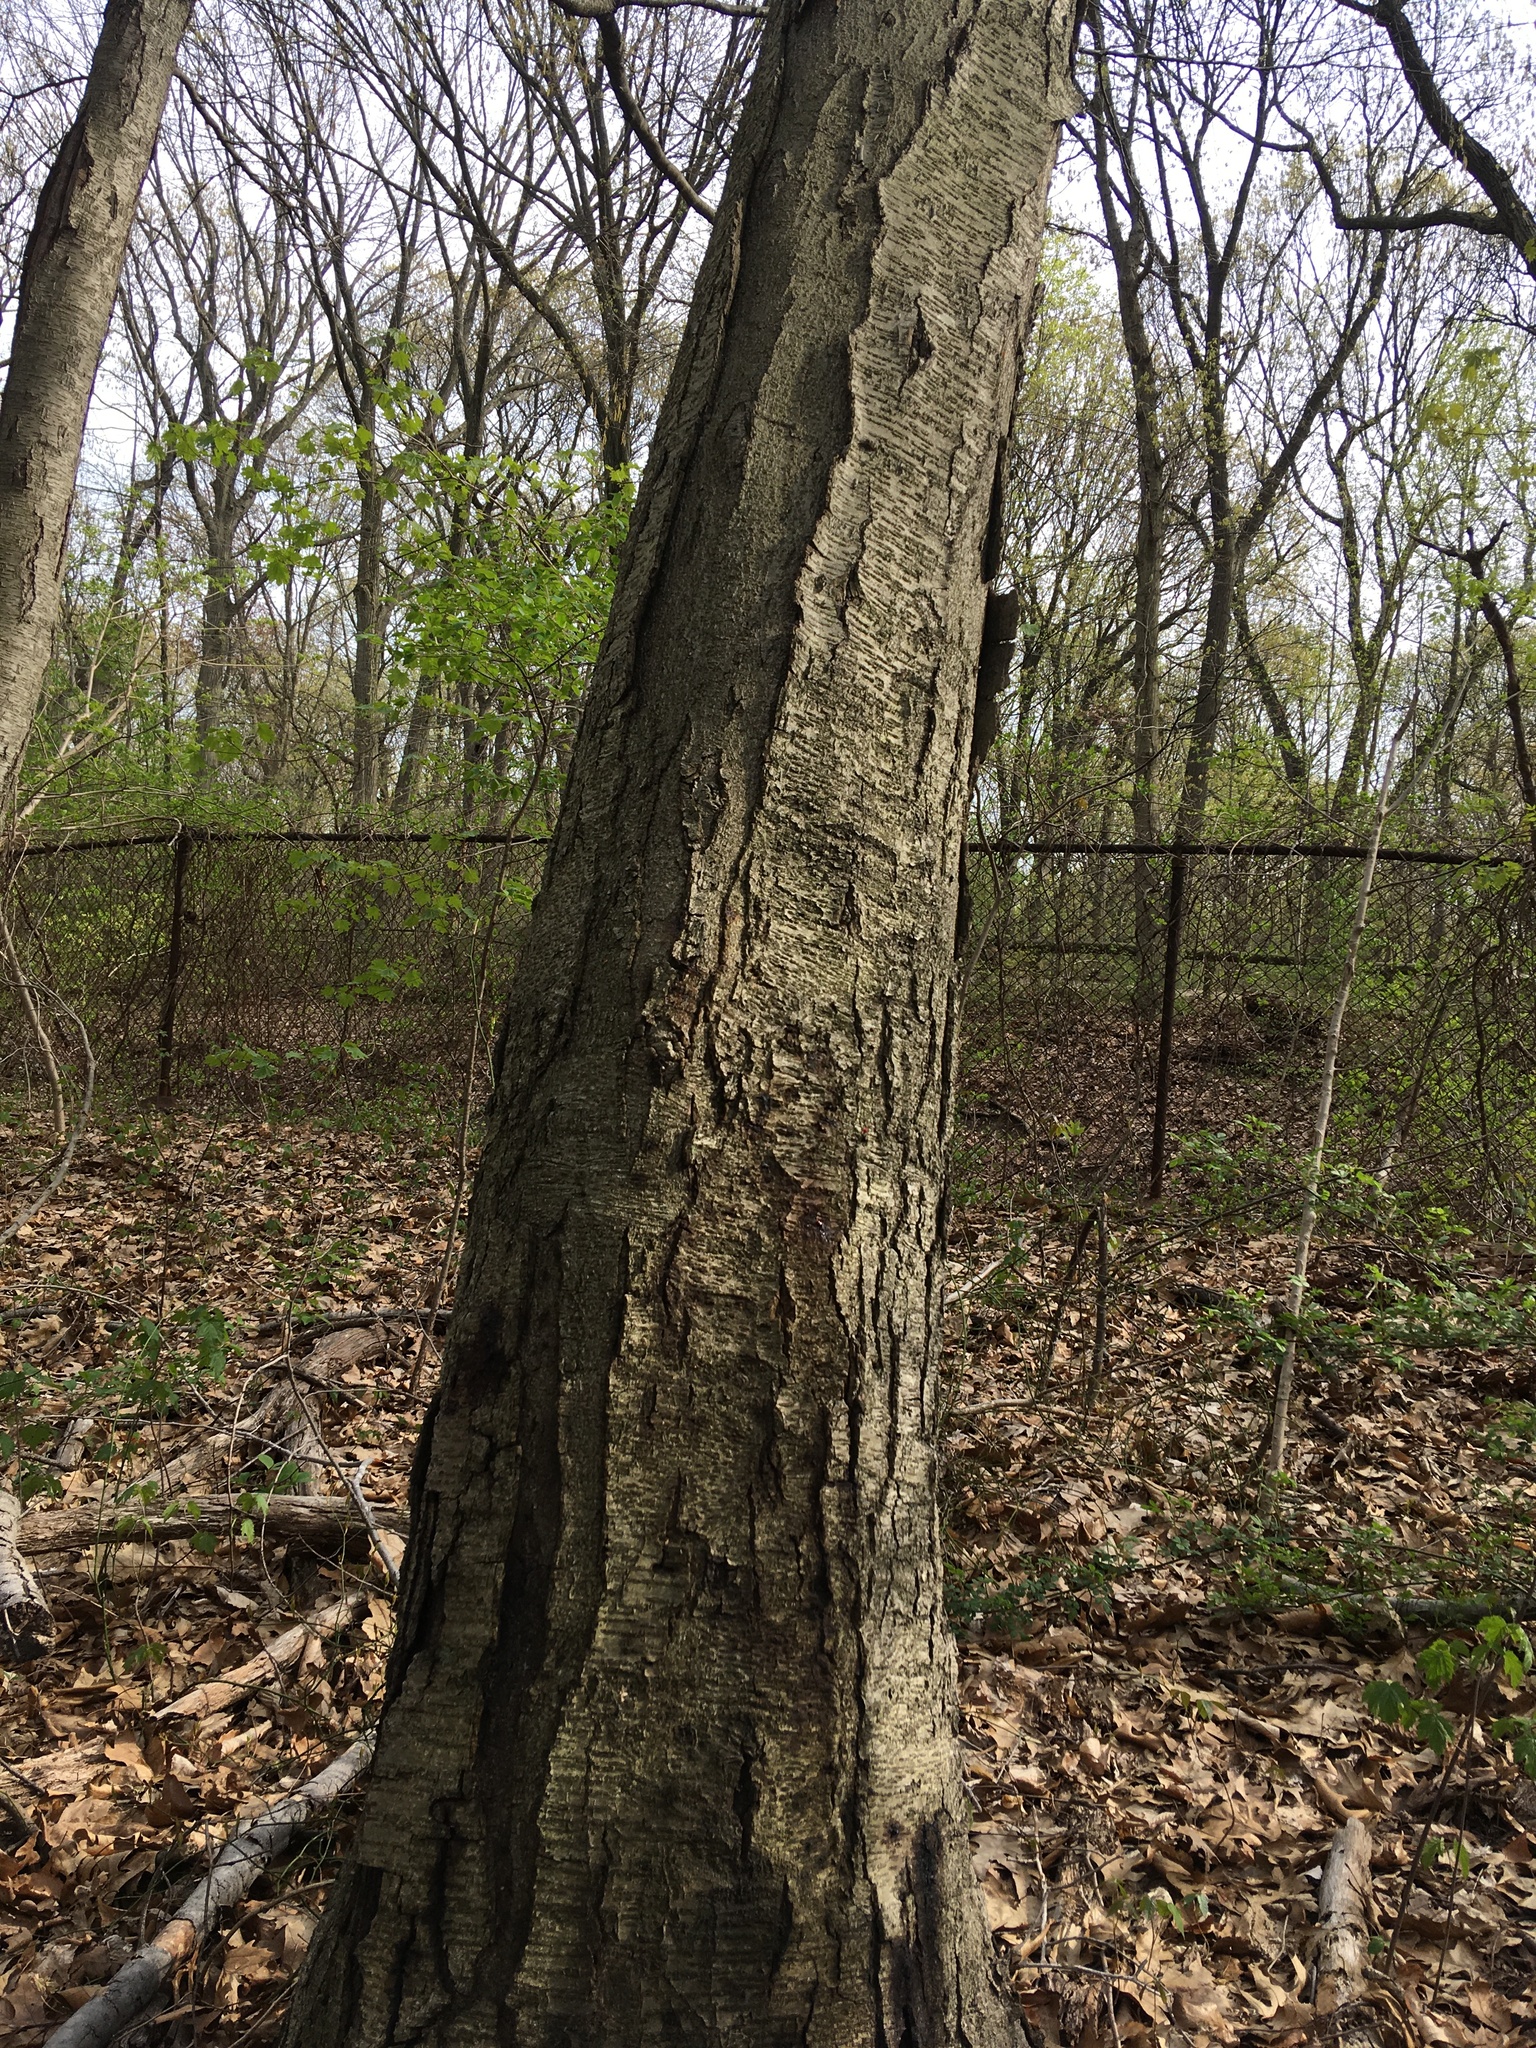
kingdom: Plantae
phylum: Tracheophyta
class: Magnoliopsida
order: Fagales
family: Betulaceae
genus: Betula
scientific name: Betula lenta
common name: Black birch
